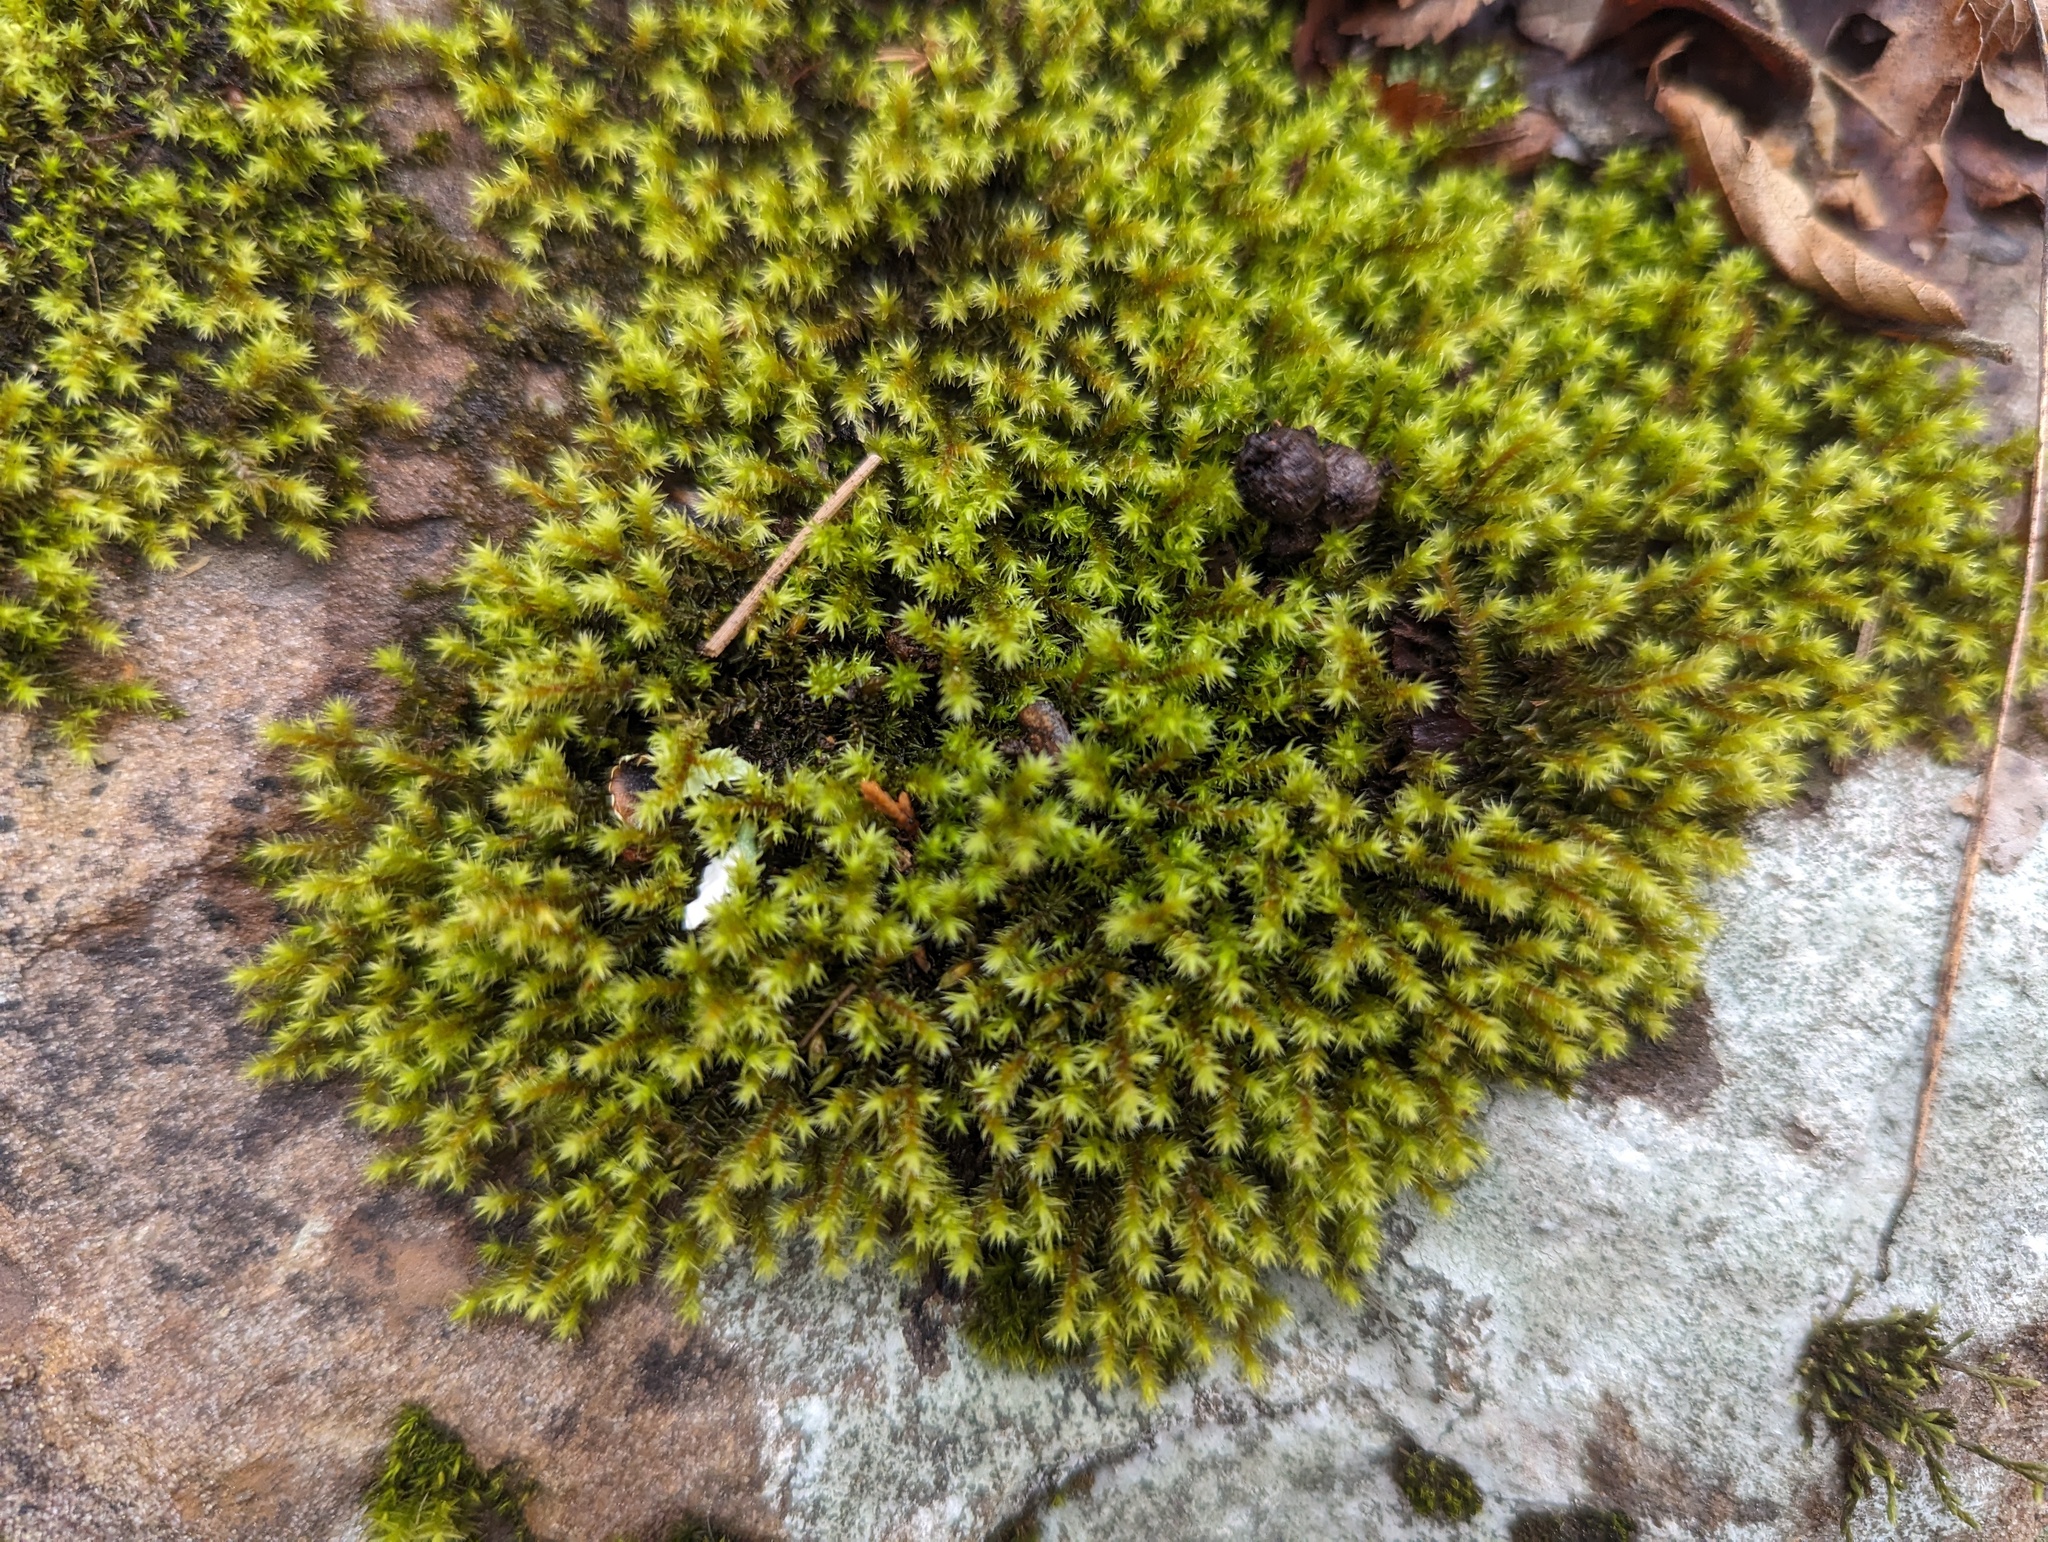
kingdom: Plantae
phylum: Bryophyta
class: Bryopsida
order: Hedwigiales
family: Hedwigiaceae
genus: Hedwigia
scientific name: Hedwigia ciliata
